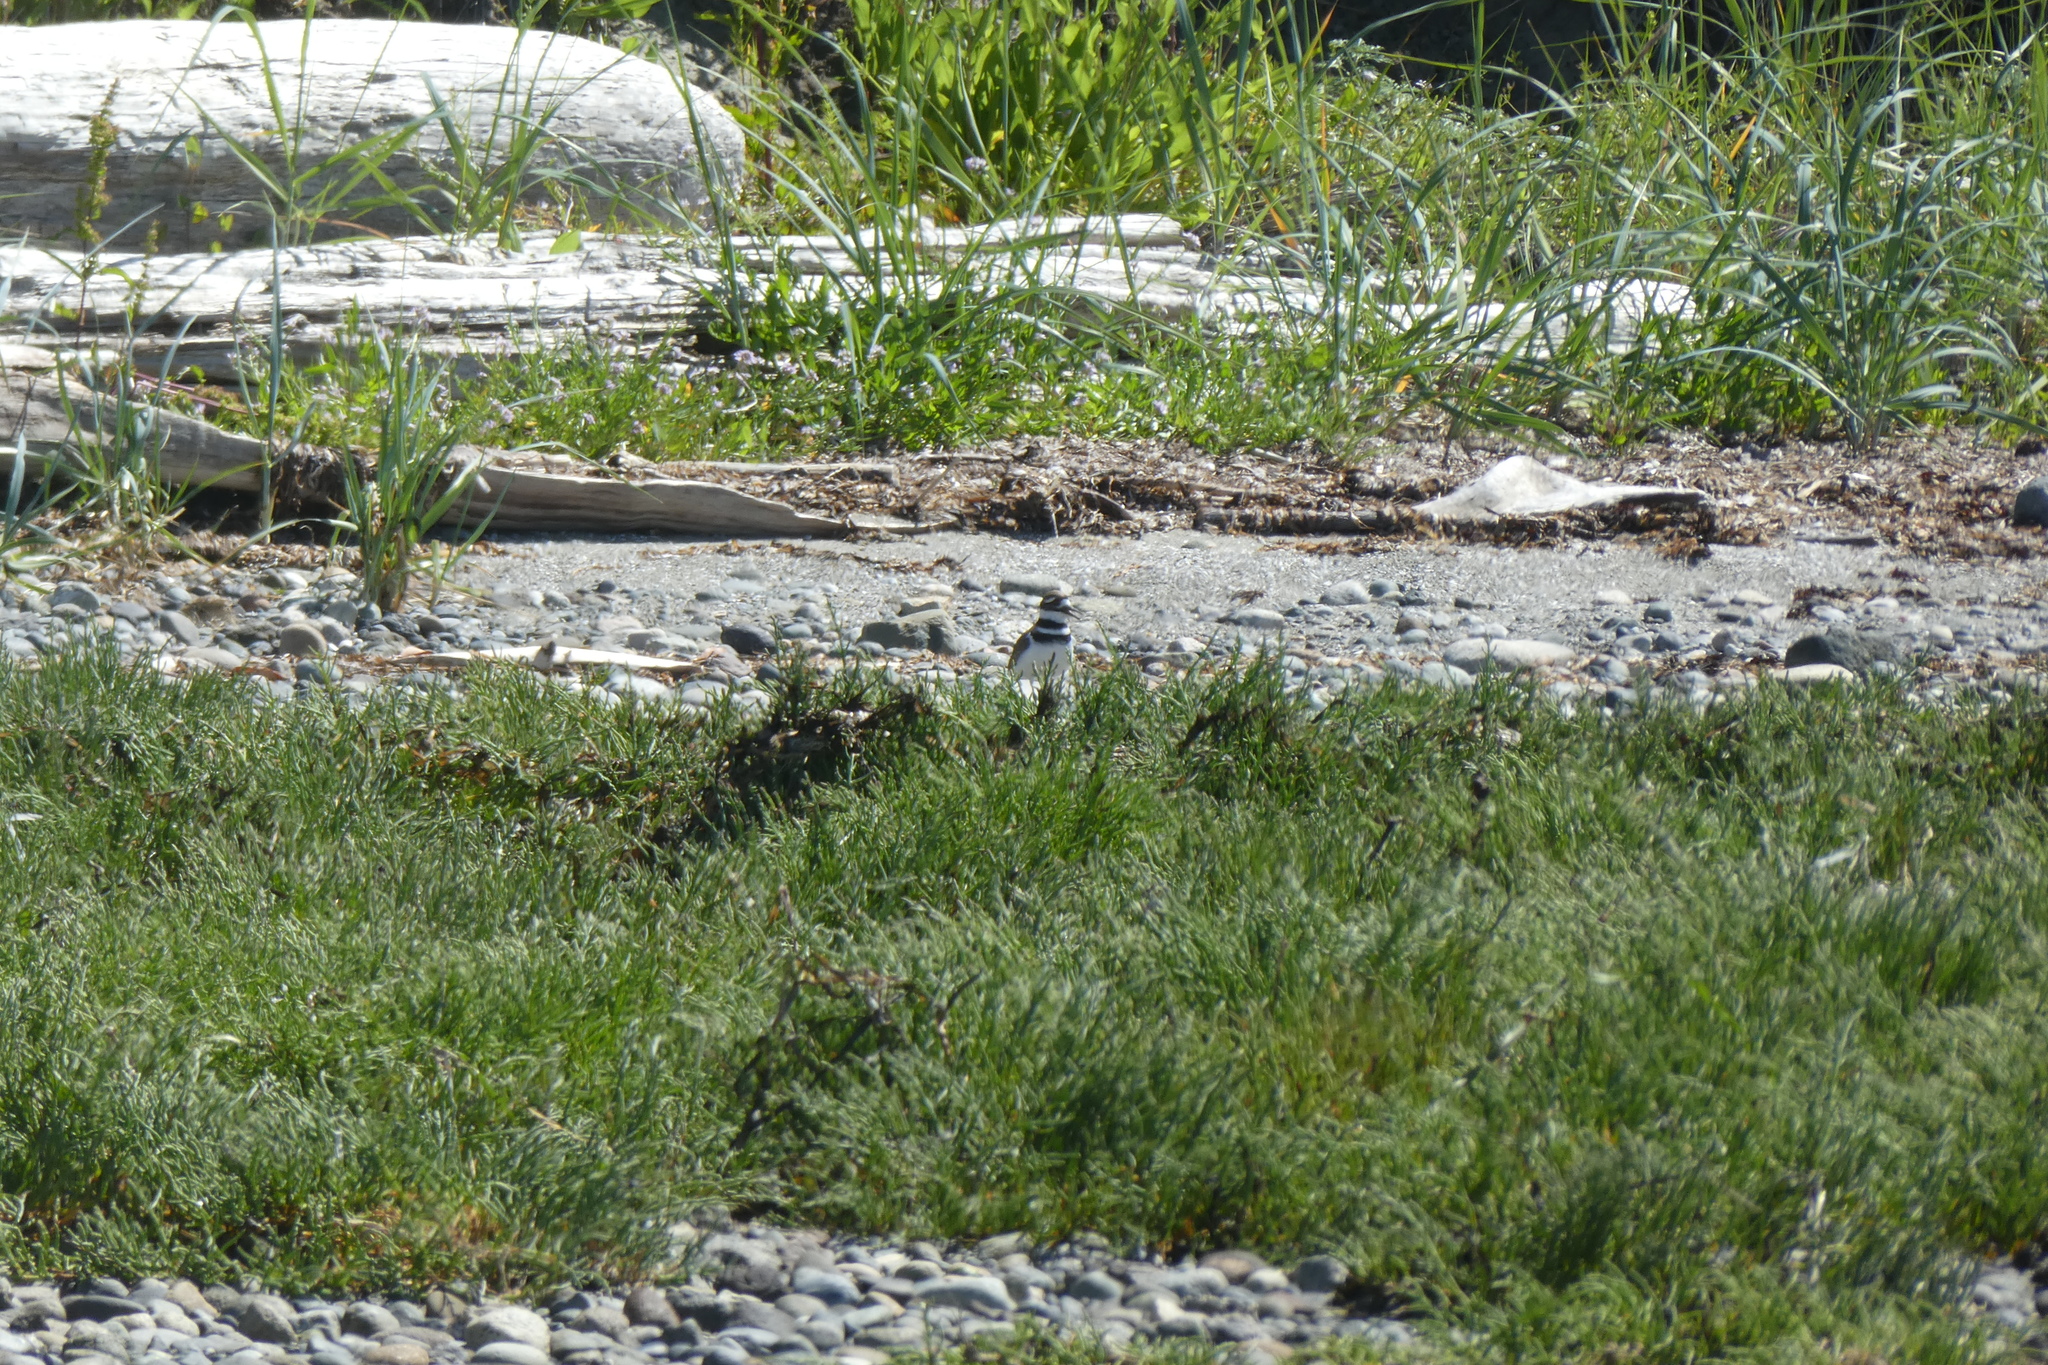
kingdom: Animalia
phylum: Chordata
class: Aves
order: Charadriiformes
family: Charadriidae
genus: Charadrius
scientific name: Charadrius vociferus
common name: Killdeer
